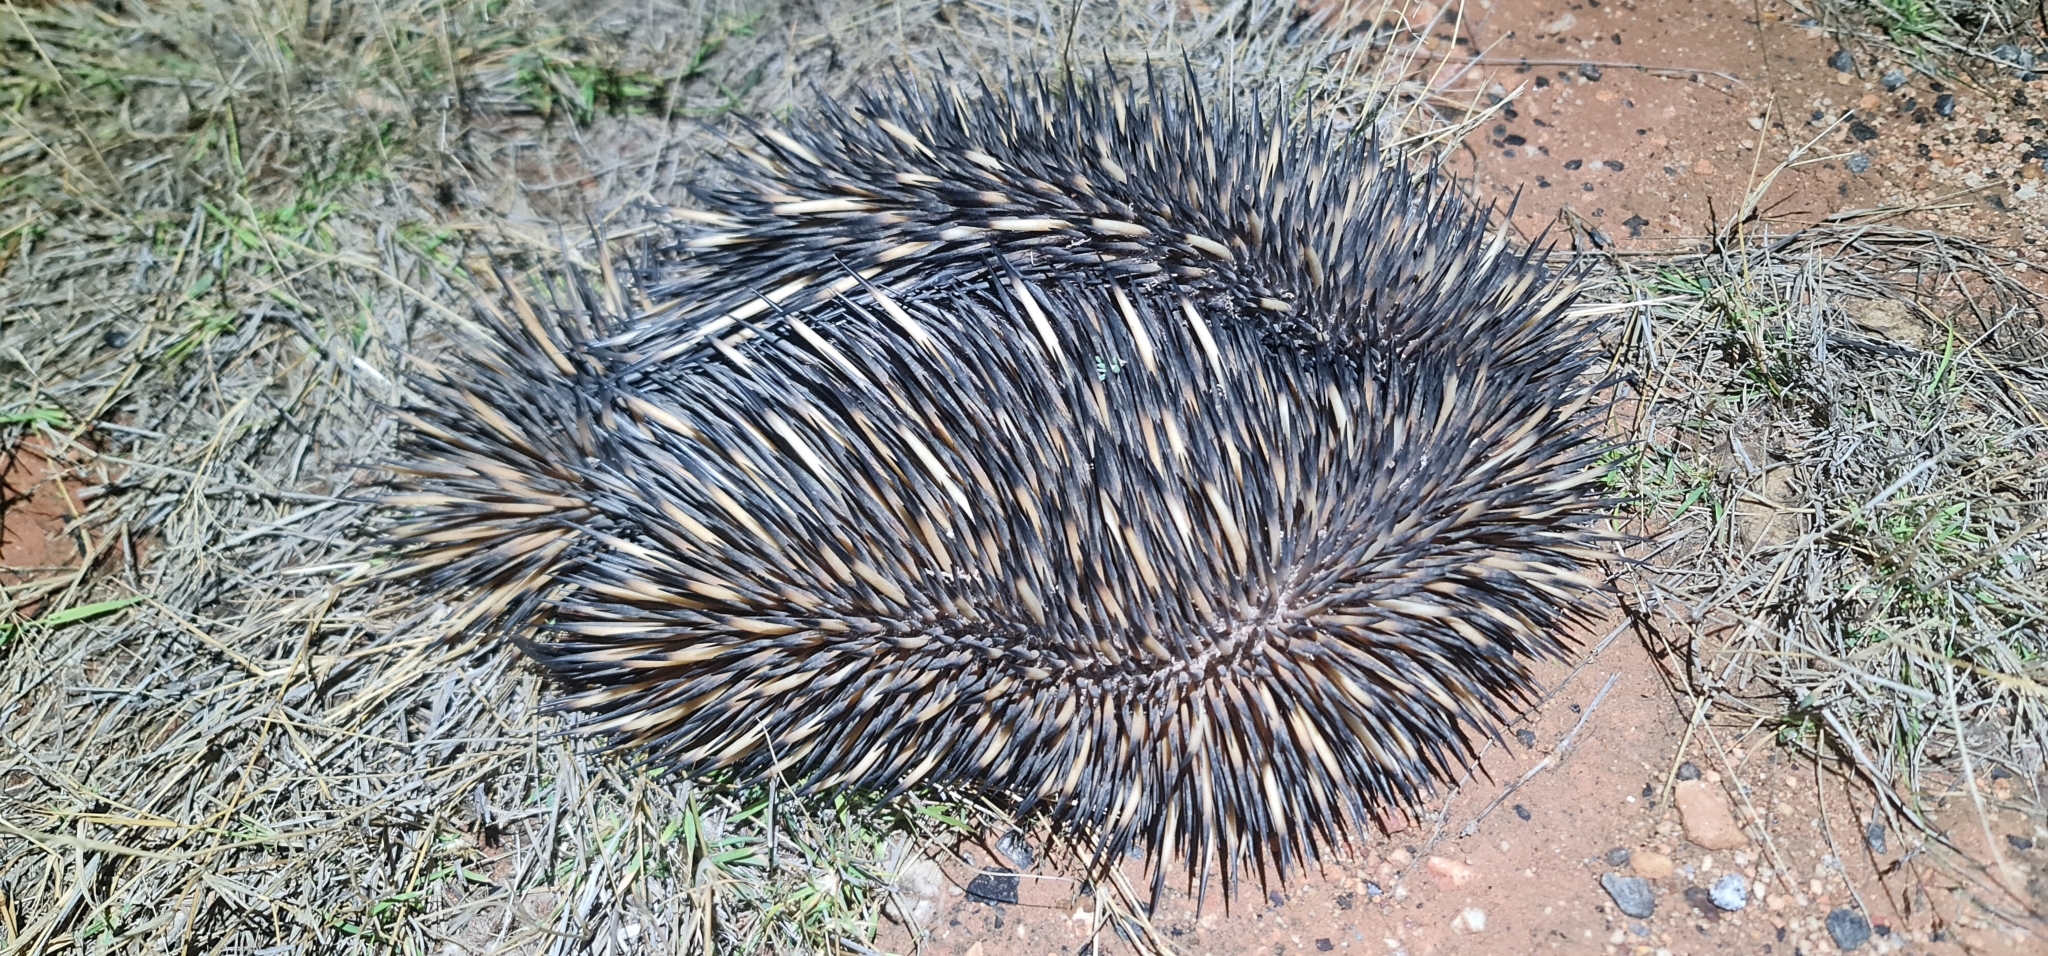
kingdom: Animalia
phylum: Chordata
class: Mammalia
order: Monotremata
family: Tachyglossidae
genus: Tachyglossus
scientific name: Tachyglossus aculeatus
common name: Short-beaked echidna
